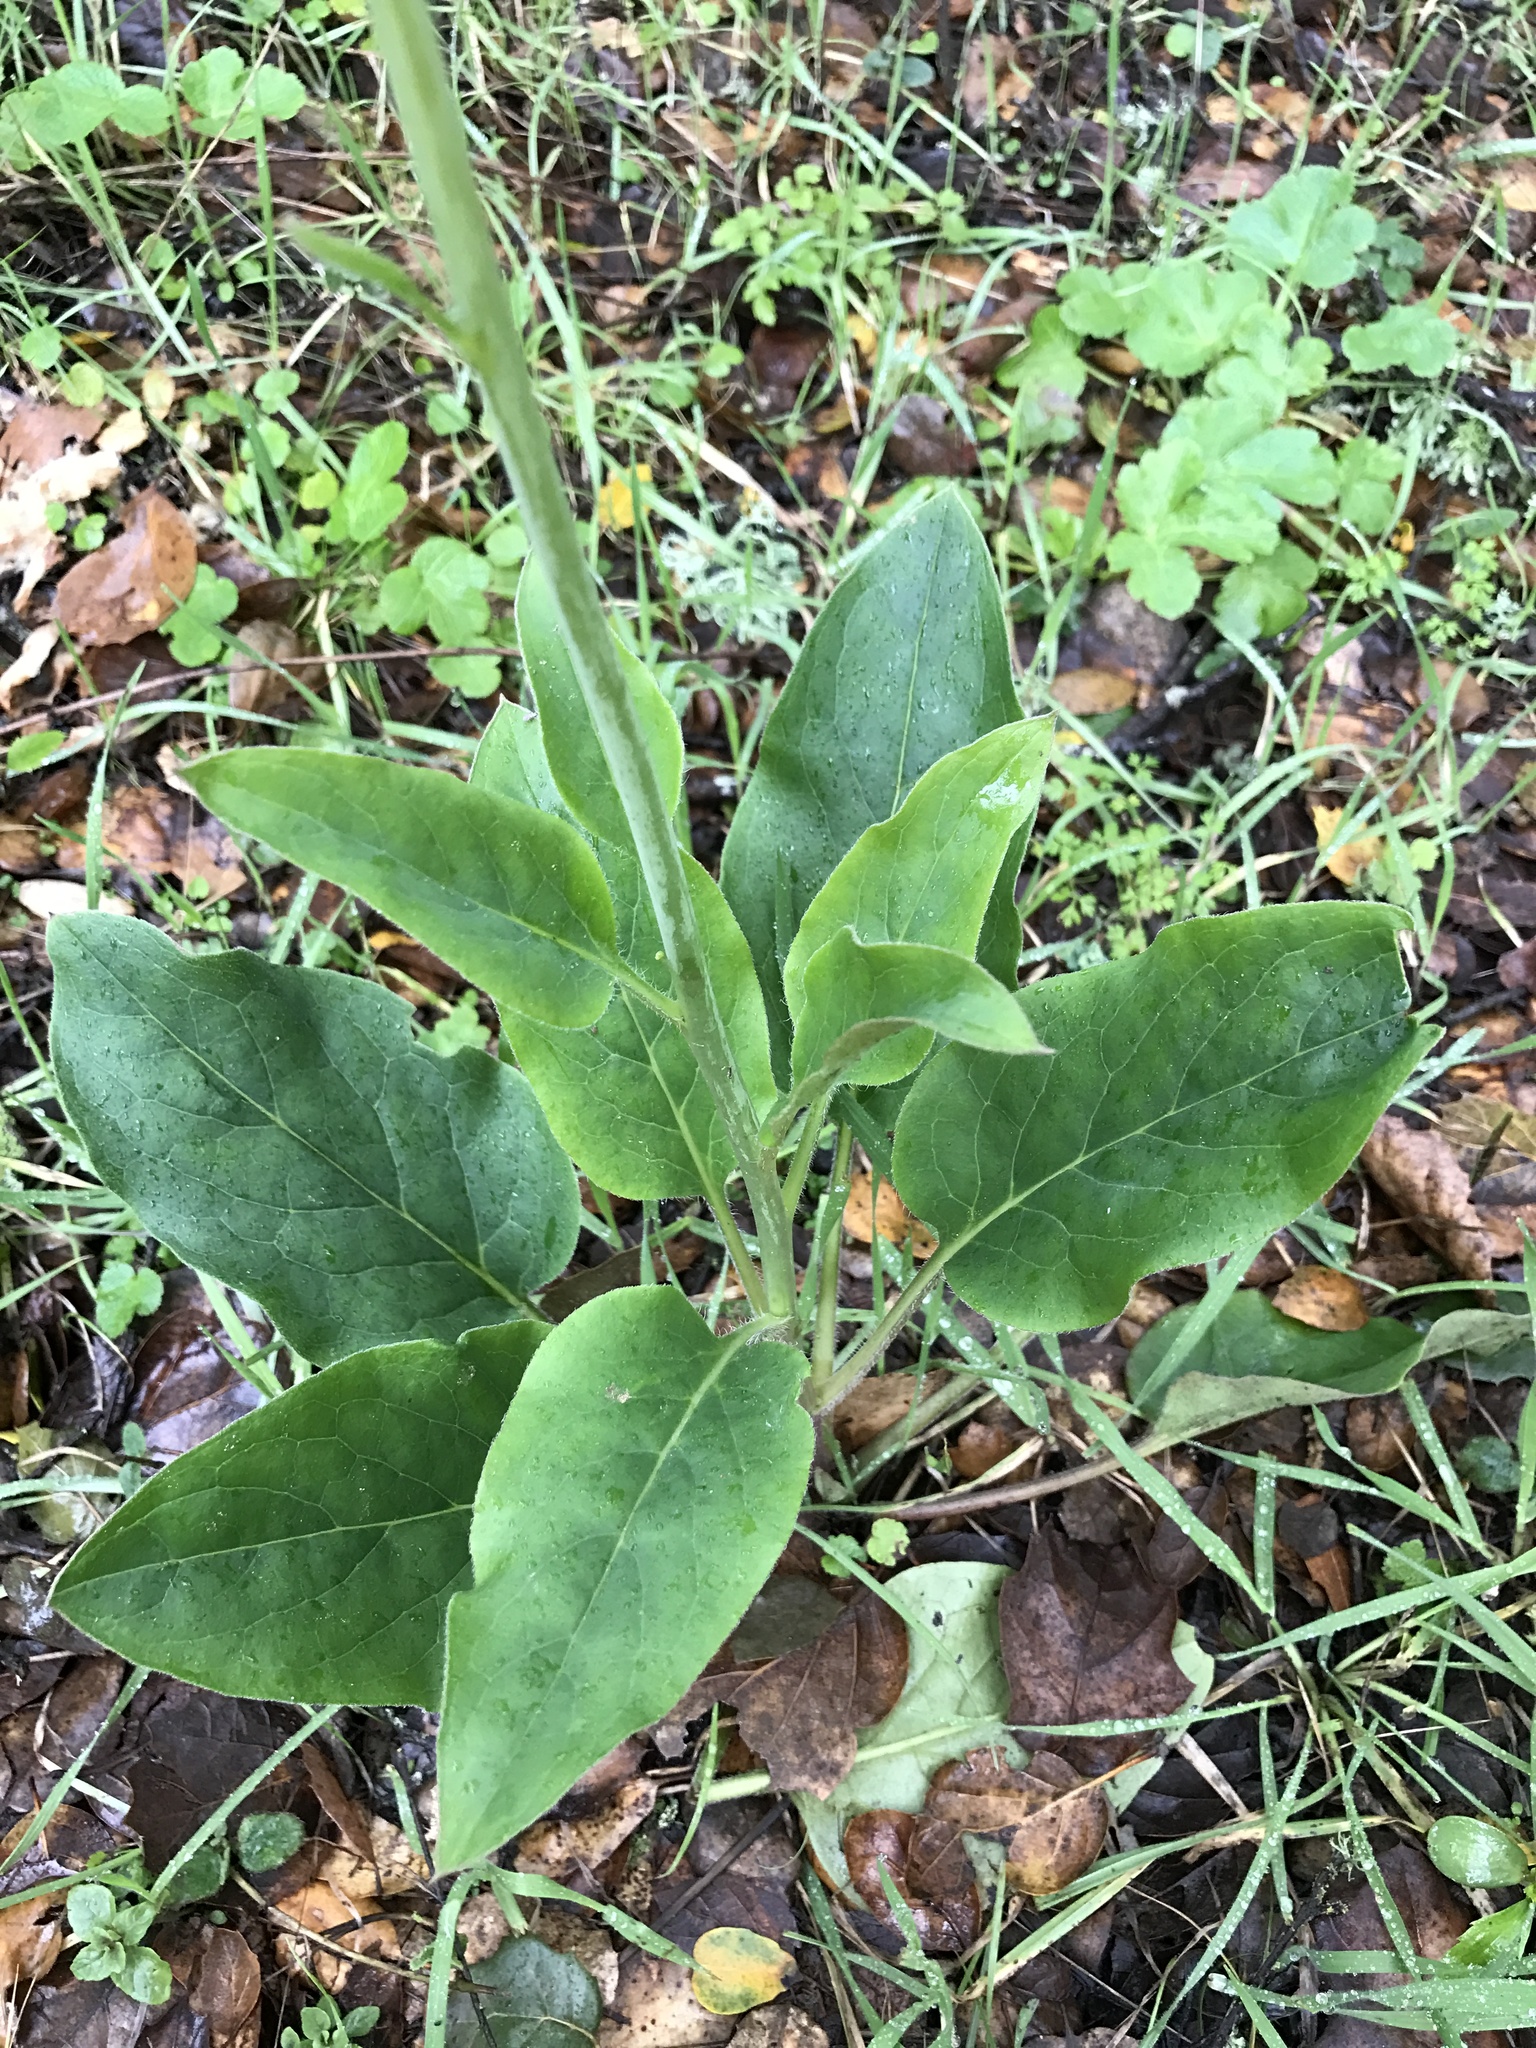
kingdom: Plantae
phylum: Tracheophyta
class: Magnoliopsida
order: Boraginales
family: Boraginaceae
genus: Adelinia
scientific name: Adelinia grande
